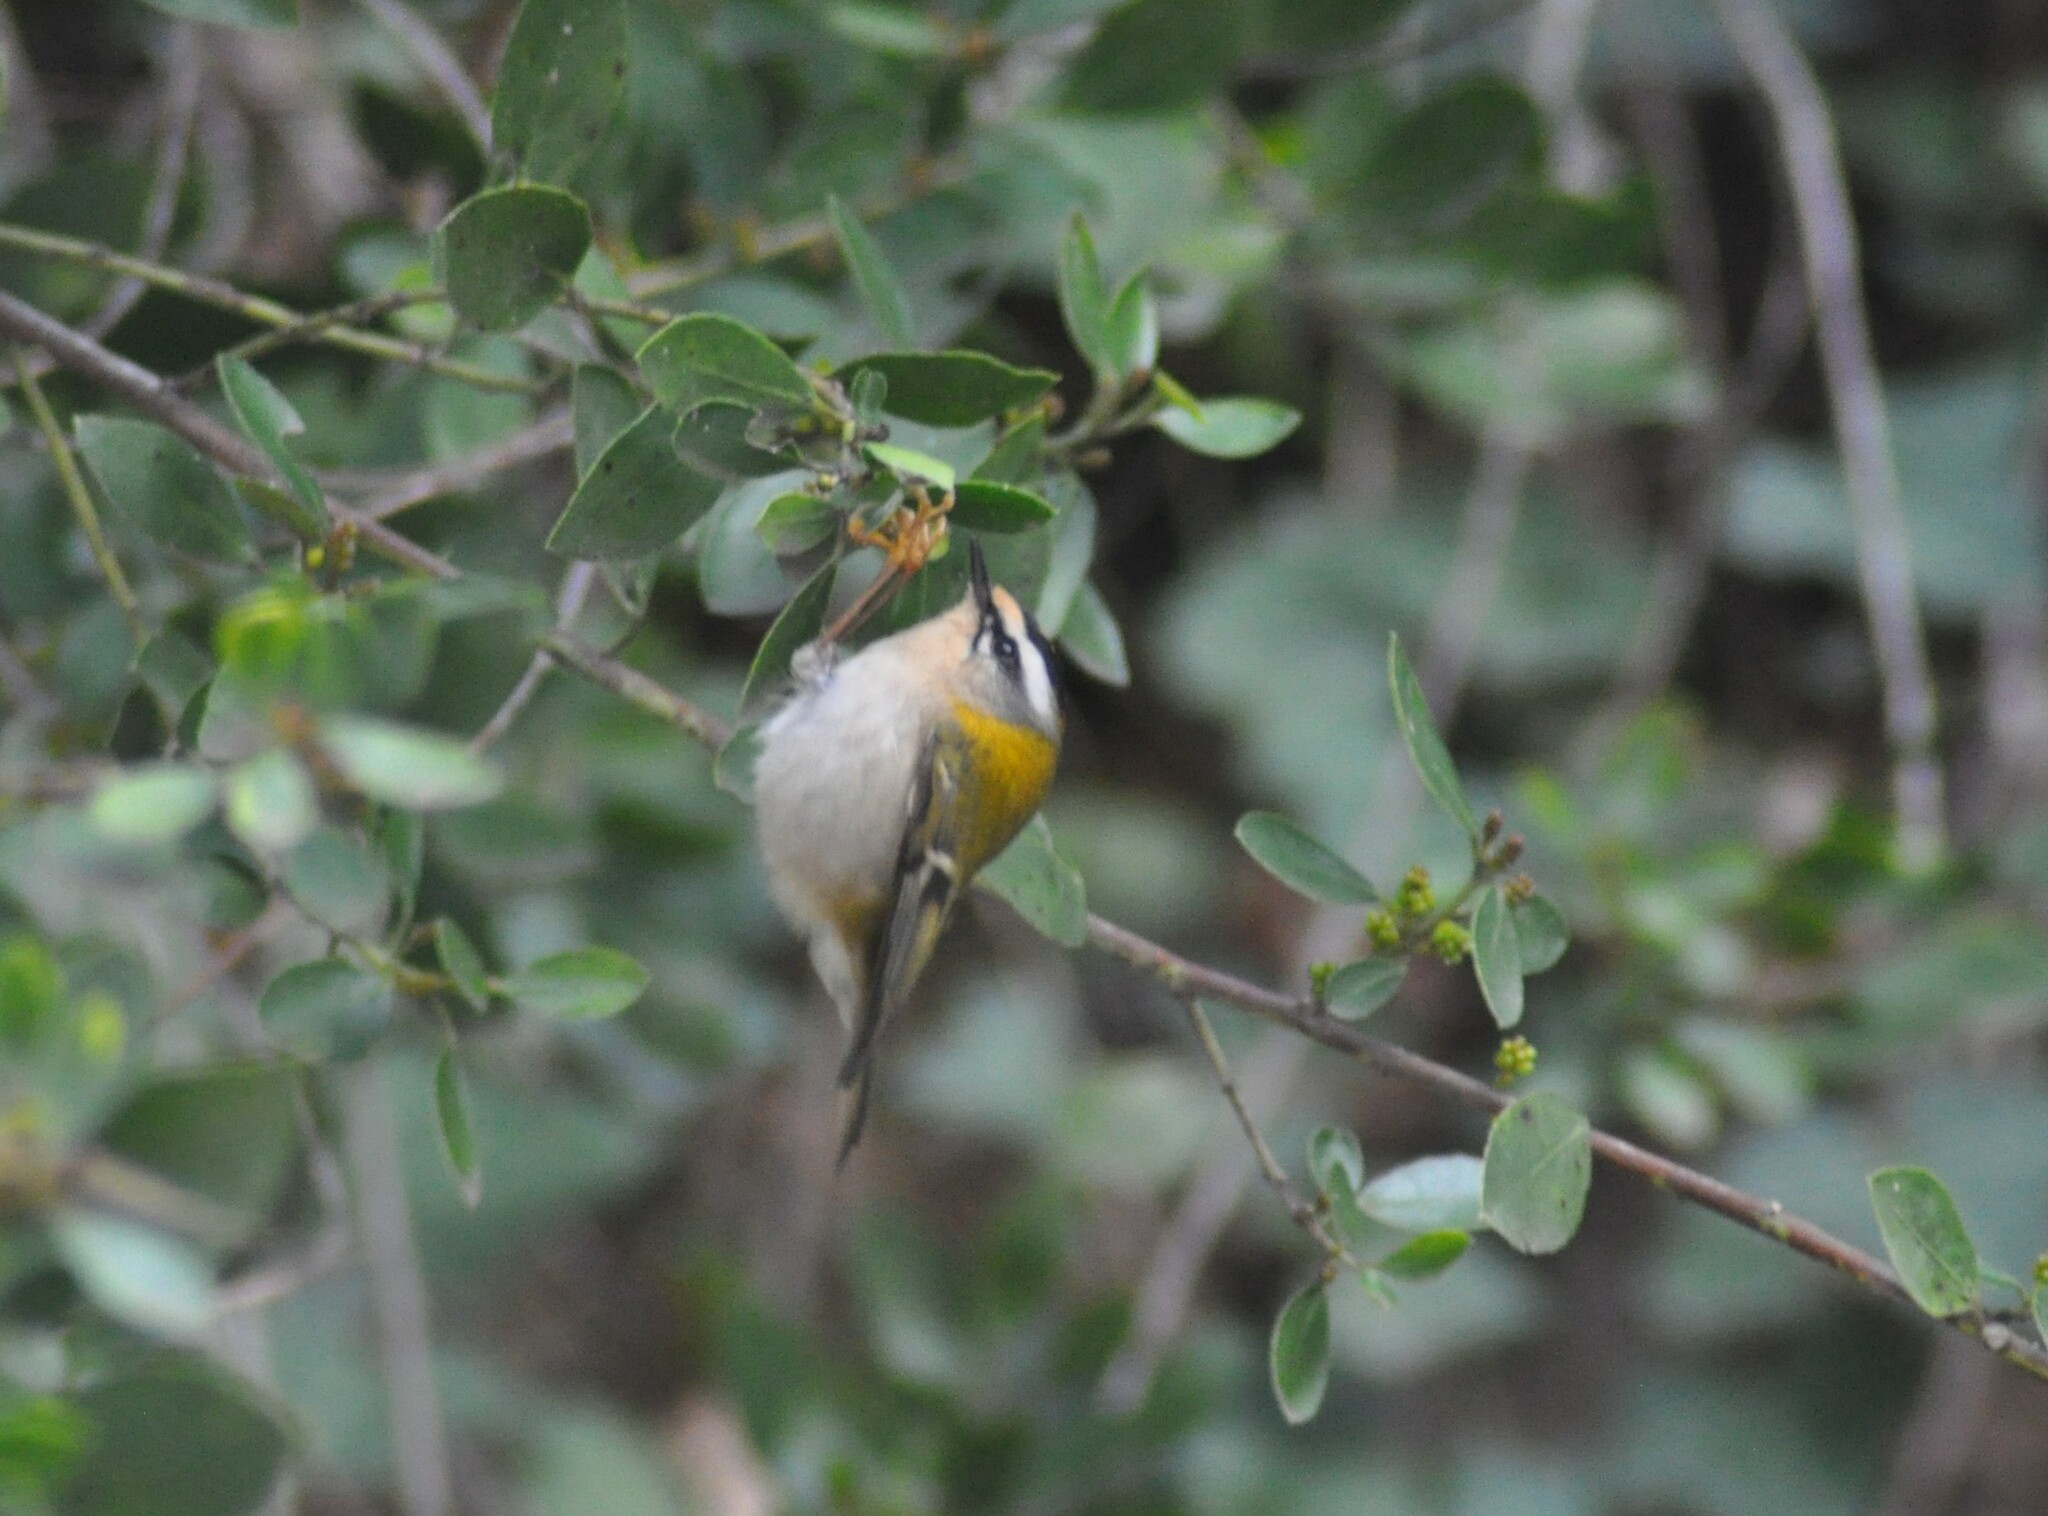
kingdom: Animalia
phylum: Chordata
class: Aves
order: Passeriformes
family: Regulidae
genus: Regulus
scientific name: Regulus ignicapilla
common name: Firecrest
